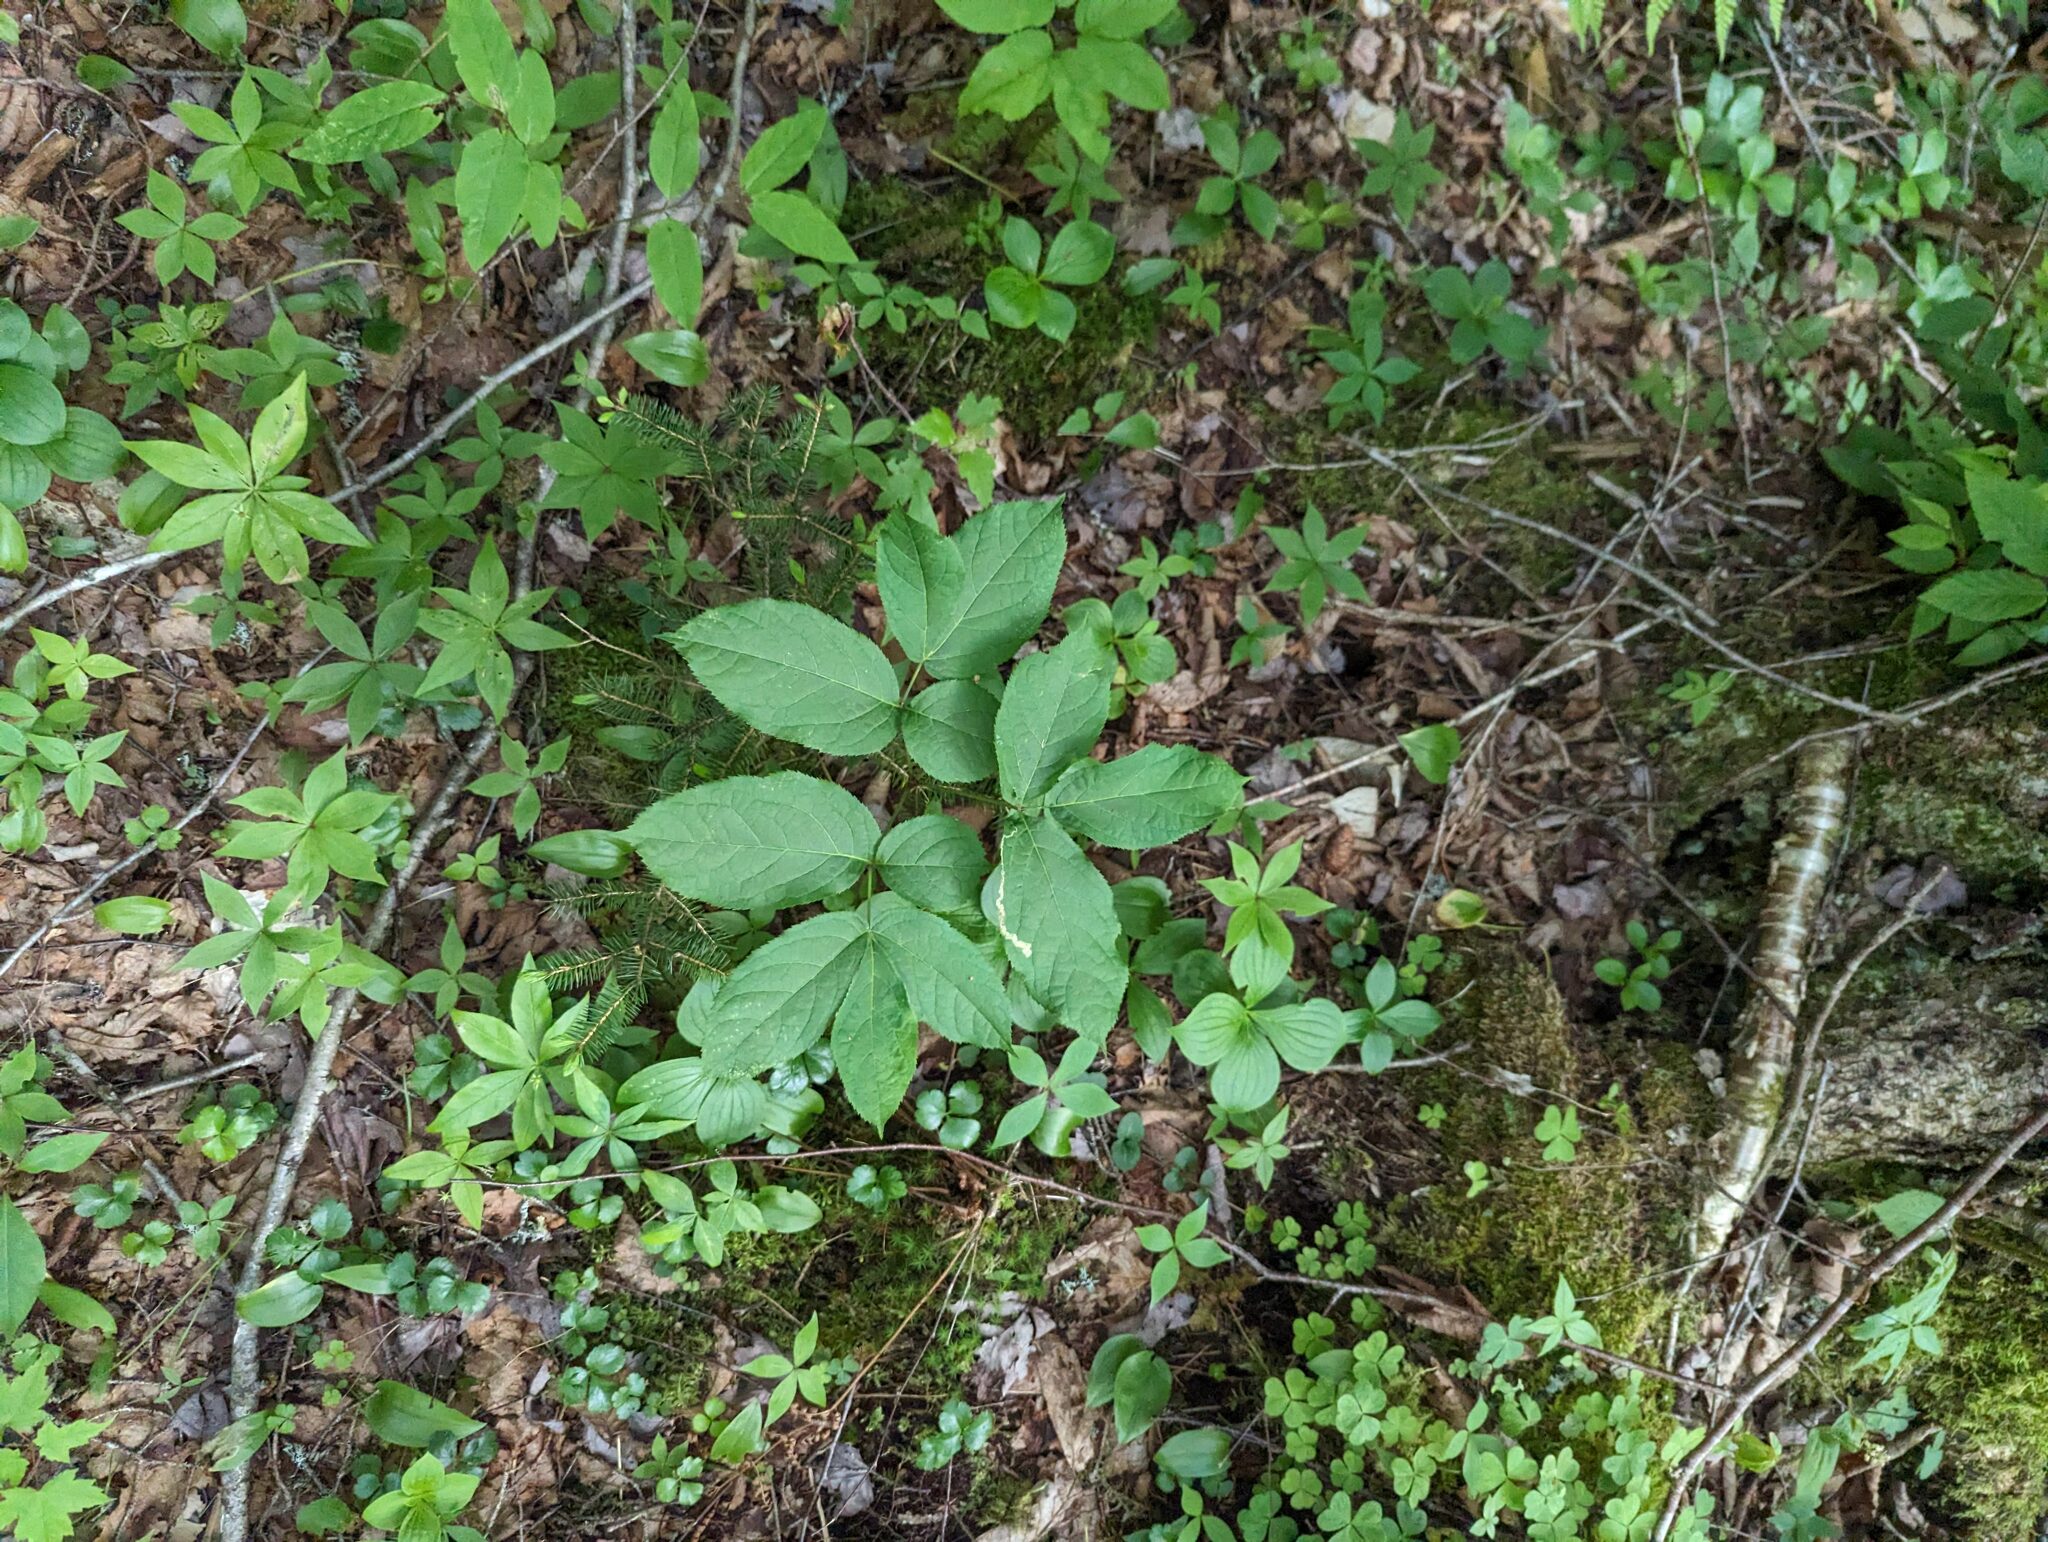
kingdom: Plantae
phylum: Tracheophyta
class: Magnoliopsida
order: Apiales
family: Araliaceae
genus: Aralia
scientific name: Aralia nudicaulis
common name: Wild sarsaparilla
